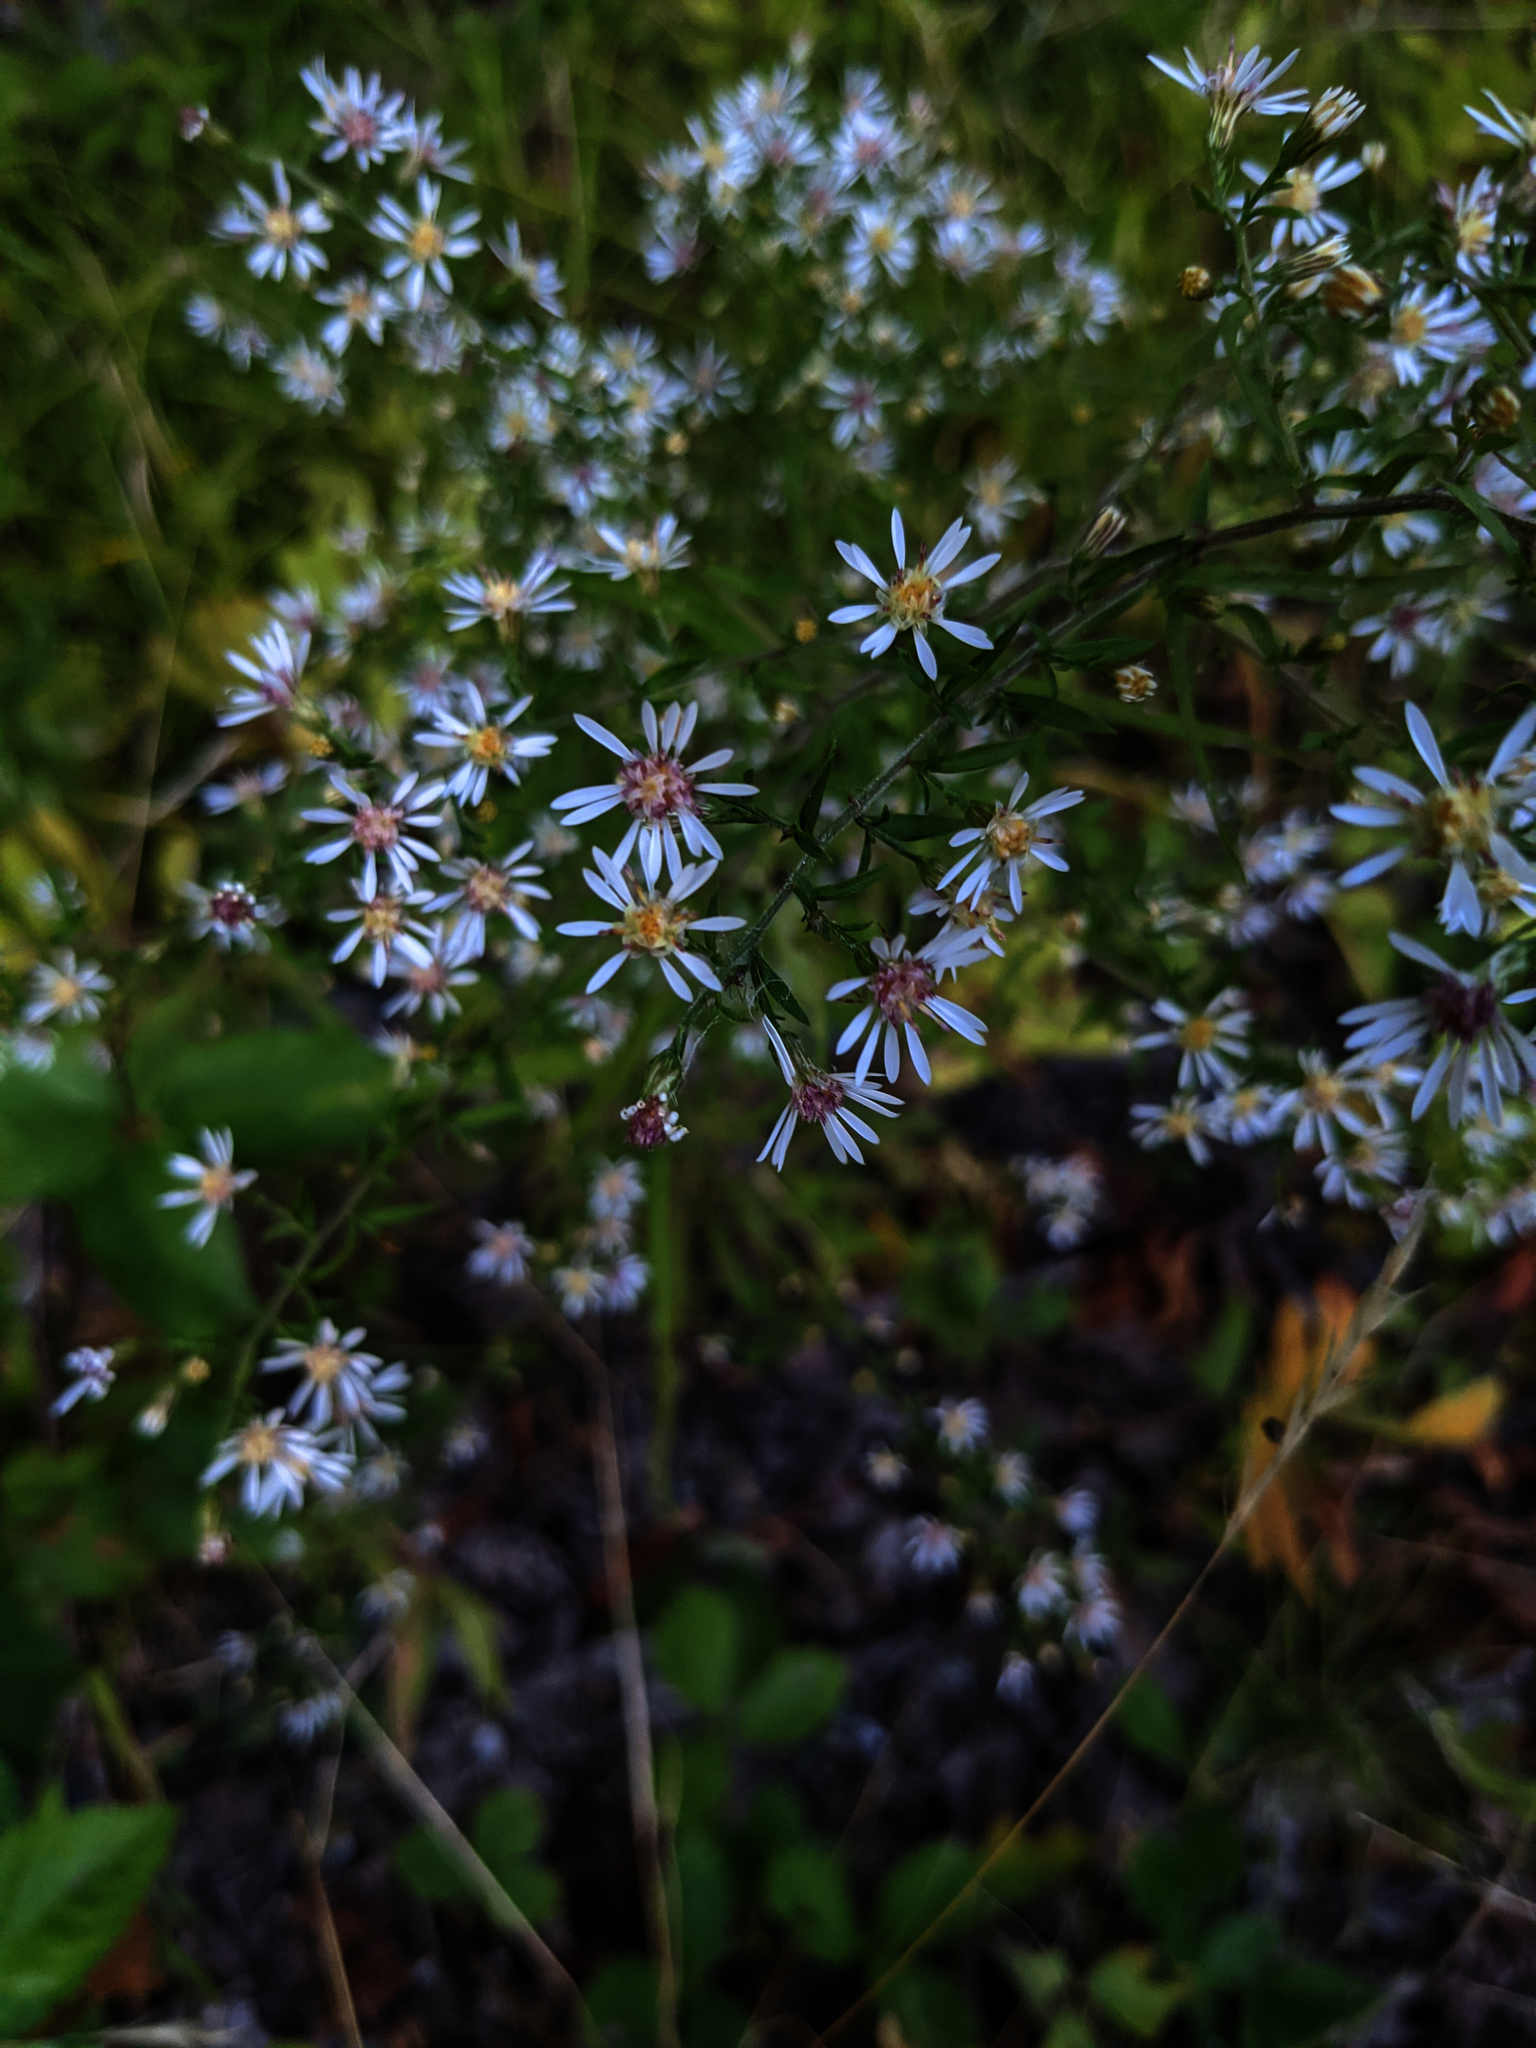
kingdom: Plantae
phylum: Tracheophyta
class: Magnoliopsida
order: Asterales
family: Asteraceae
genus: Symphyotrichum
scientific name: Symphyotrichum lateriflorum
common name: Calico aster
